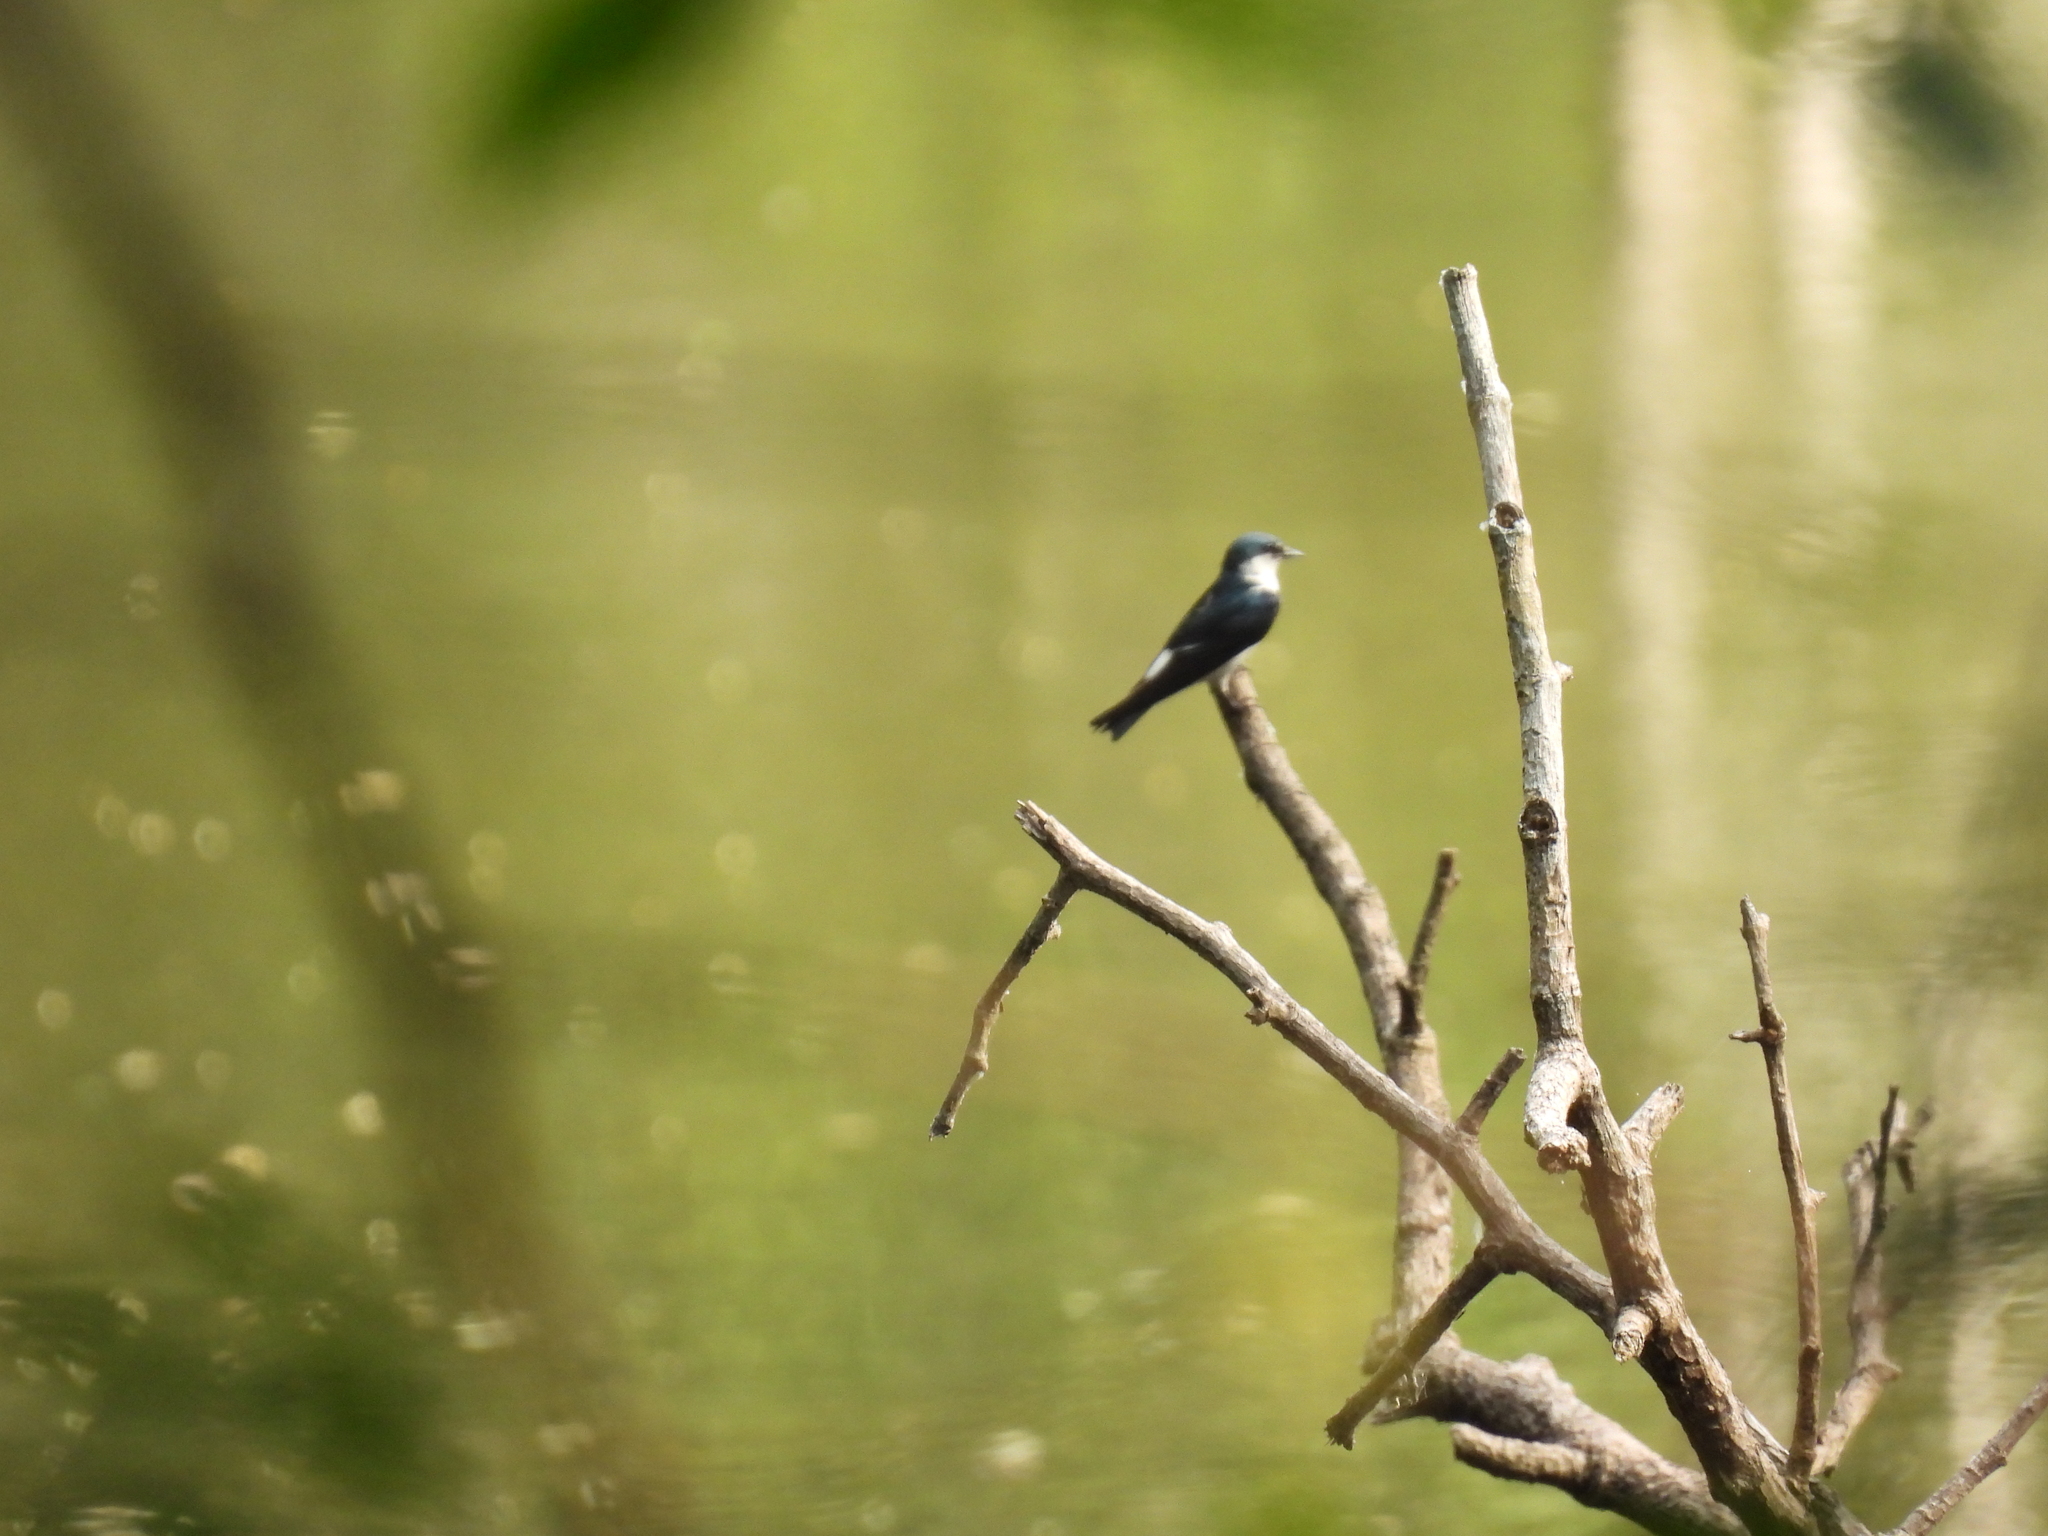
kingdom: Animalia
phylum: Chordata
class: Aves
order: Passeriformes
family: Hirundinidae
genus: Tachycineta
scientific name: Tachycineta albilinea
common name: Mangrove swallow
